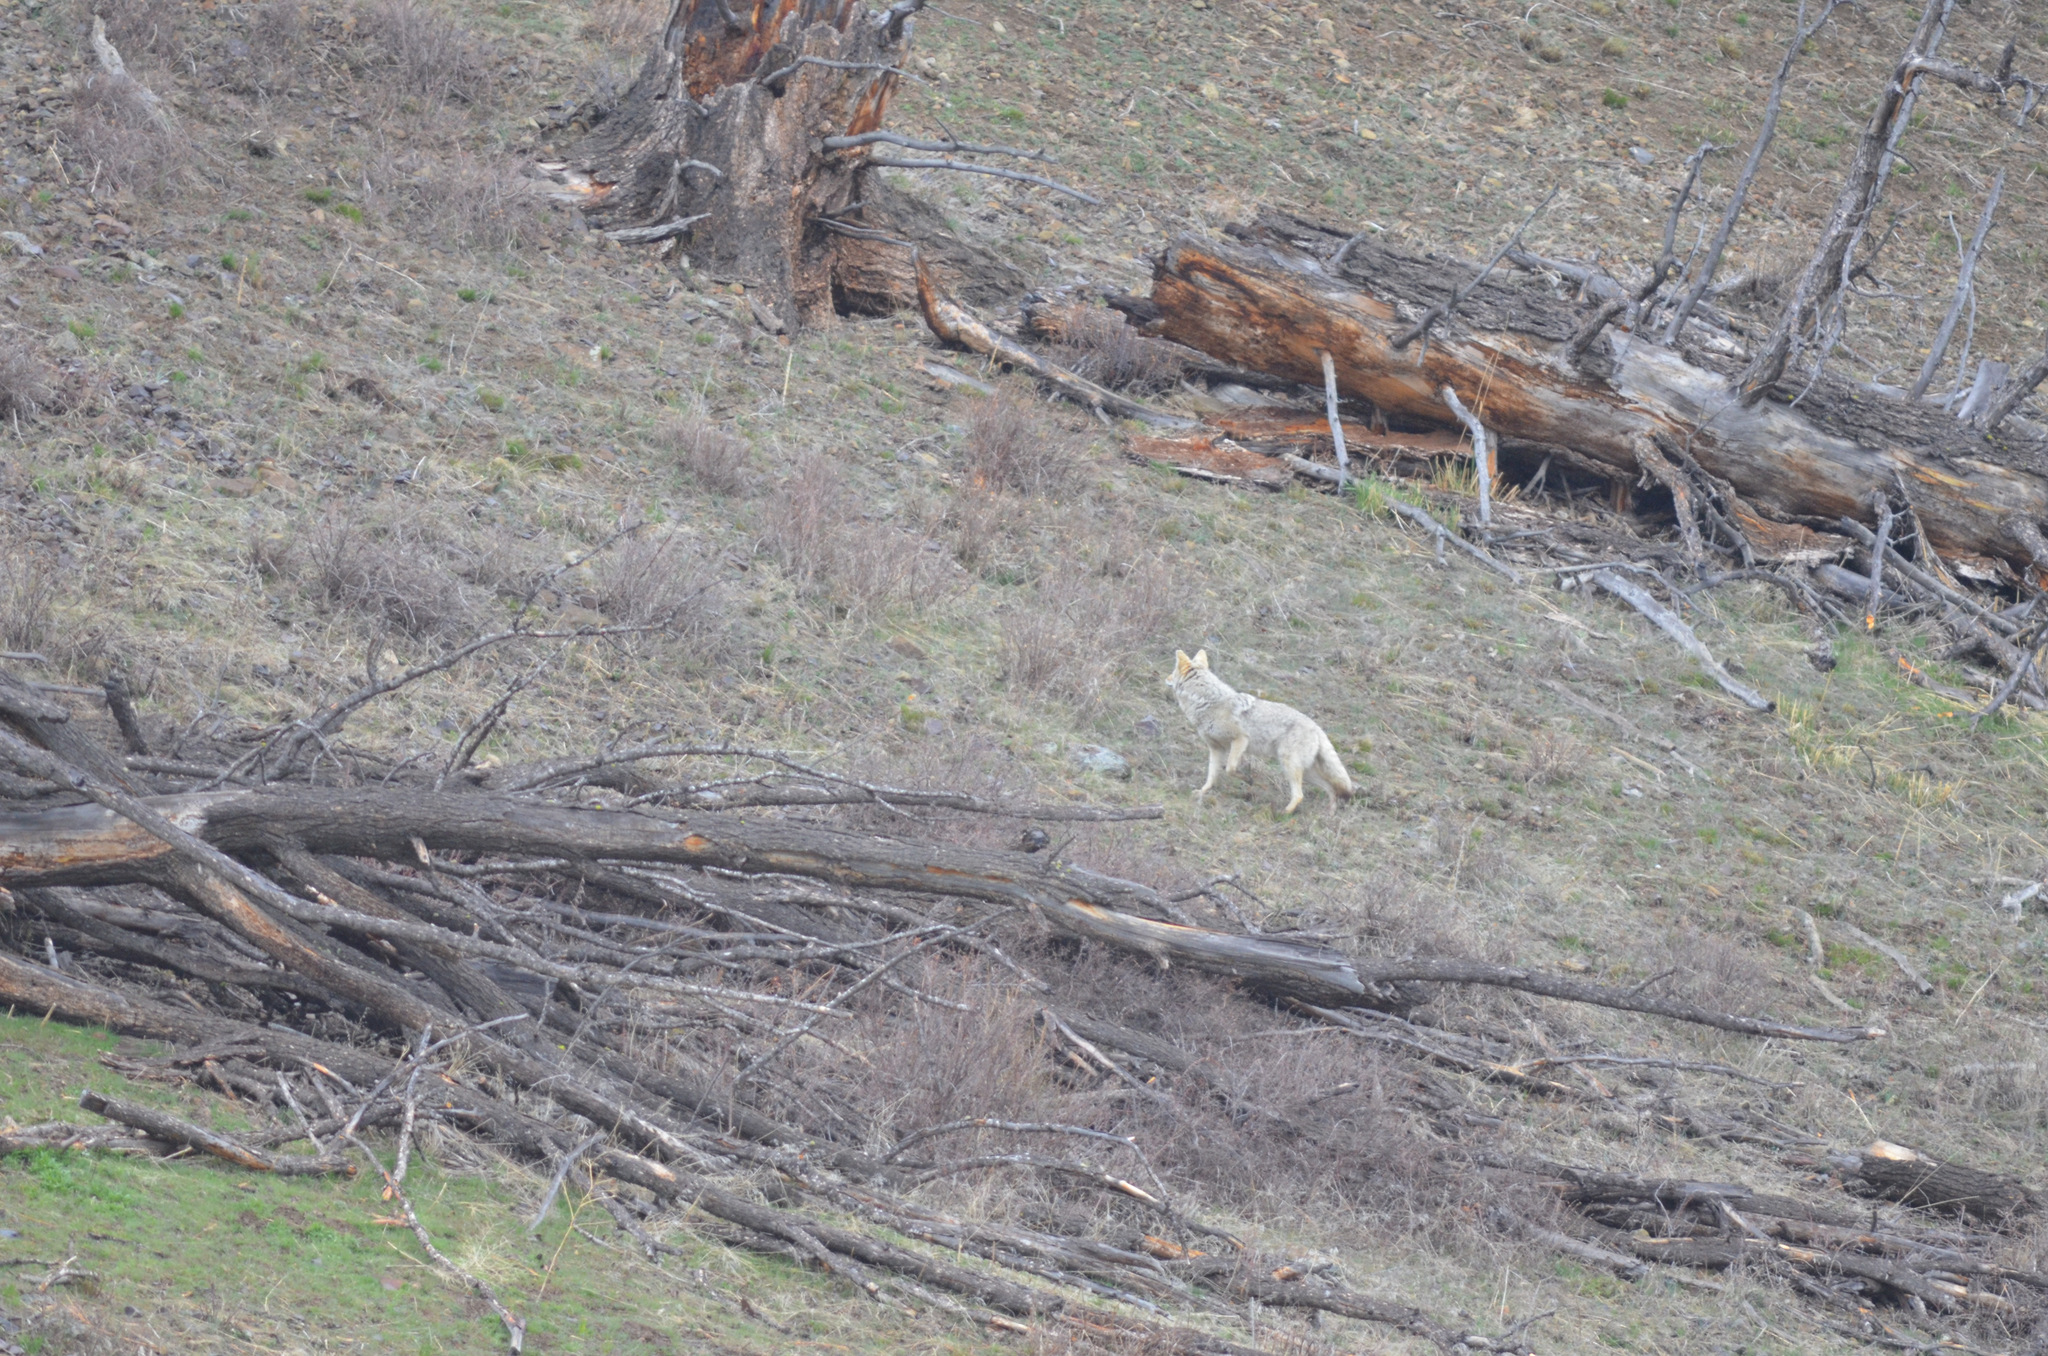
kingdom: Animalia
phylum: Chordata
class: Mammalia
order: Carnivora
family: Canidae
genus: Canis
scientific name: Canis latrans
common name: Coyote
